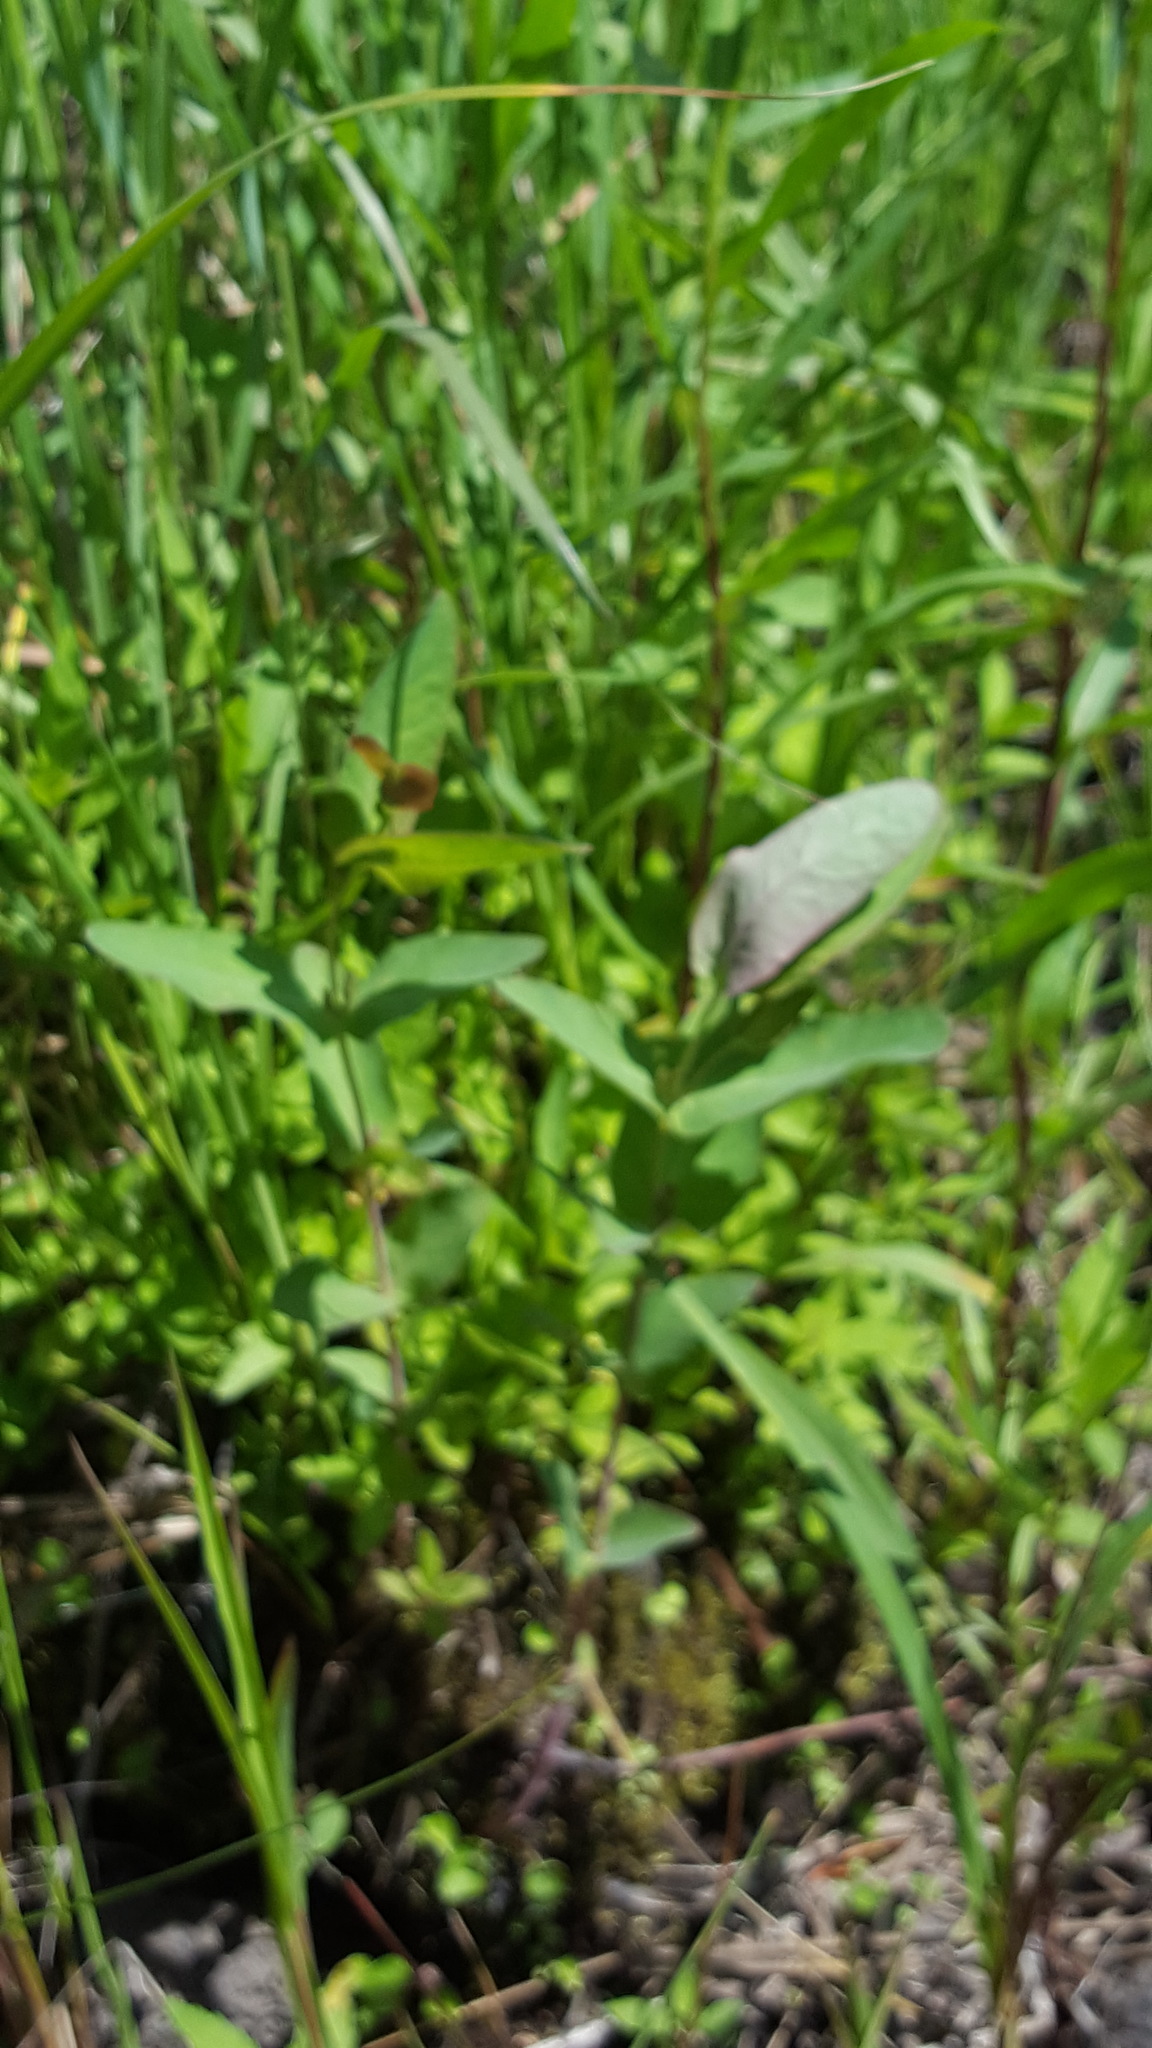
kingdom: Plantae
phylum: Tracheophyta
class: Magnoliopsida
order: Malpighiales
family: Hypericaceae
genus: Triadenum
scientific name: Triadenum fraseri
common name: Fraser's marsh st. johnswort
